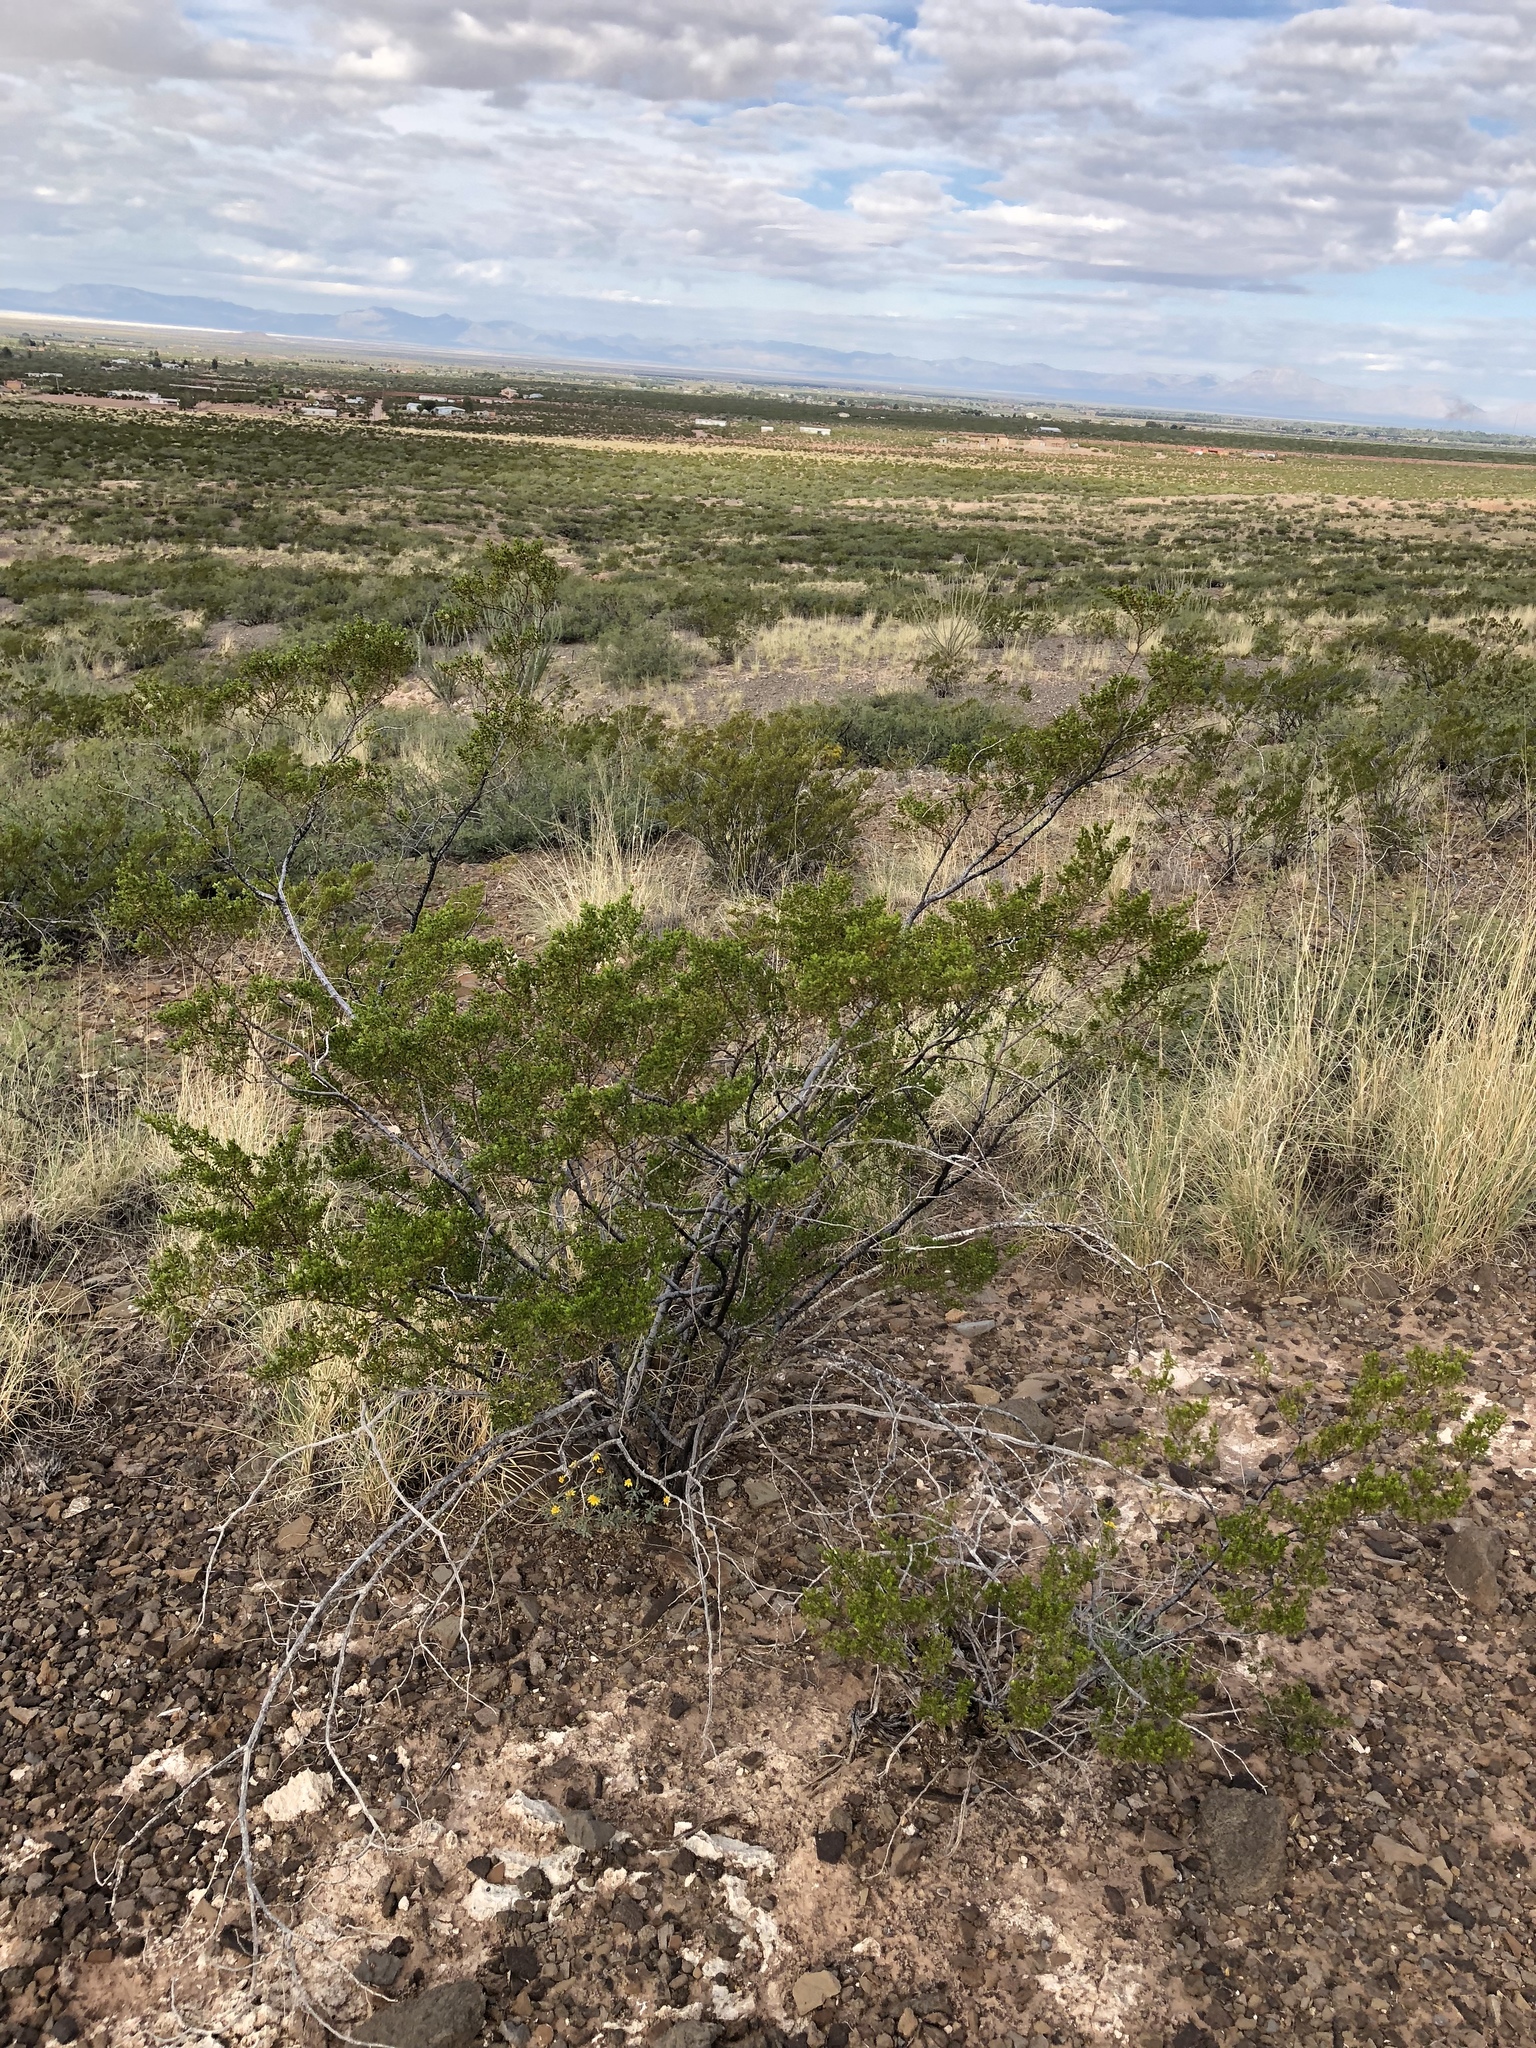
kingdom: Plantae
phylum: Tracheophyta
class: Magnoliopsida
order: Zygophyllales
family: Zygophyllaceae
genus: Larrea
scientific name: Larrea tridentata
